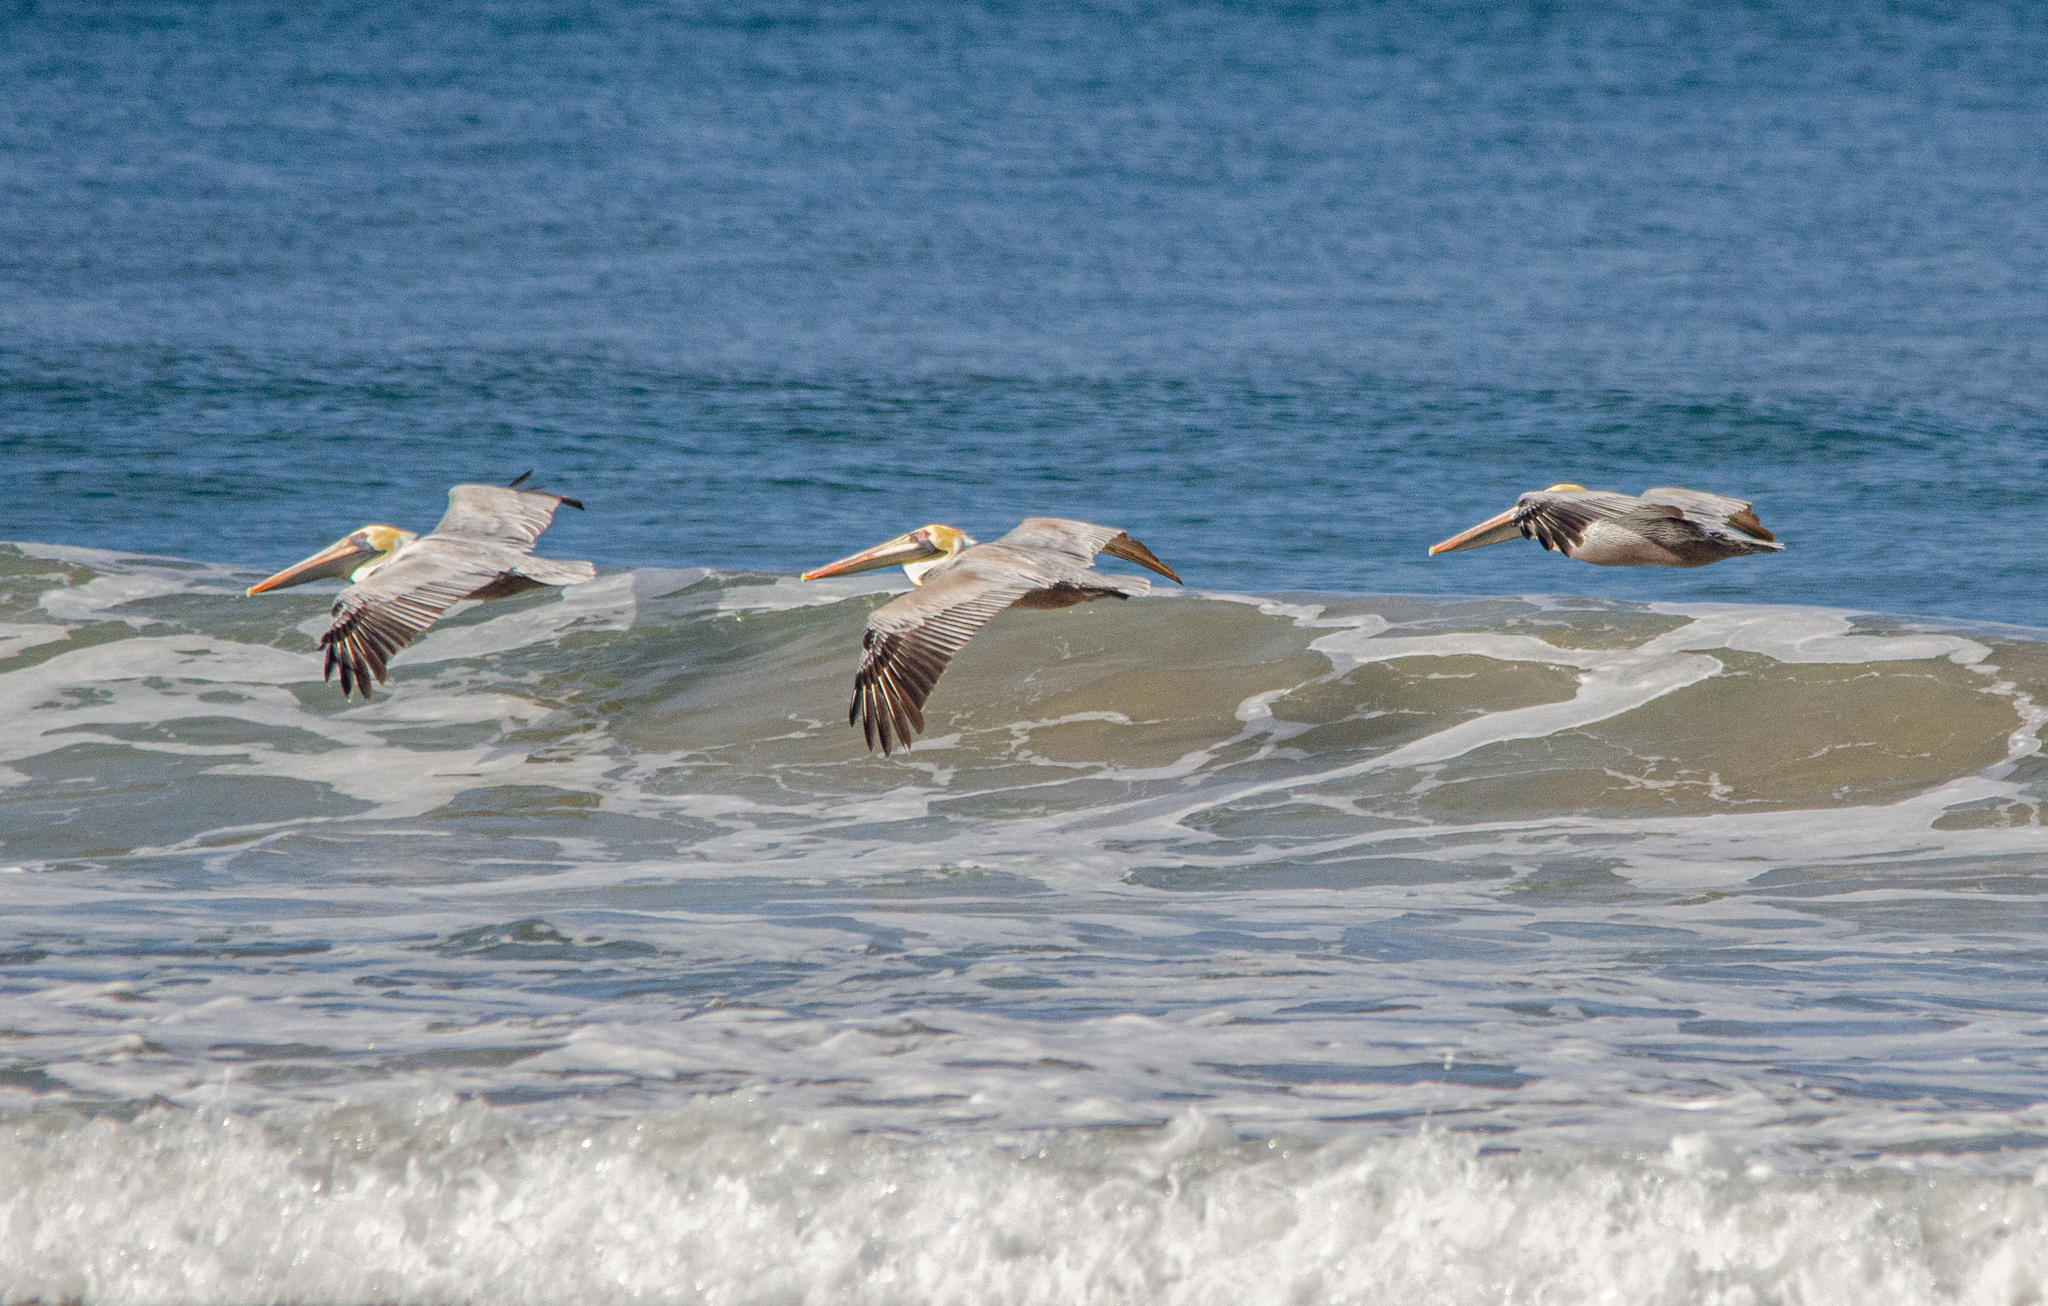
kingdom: Animalia
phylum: Chordata
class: Aves
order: Pelecaniformes
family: Pelecanidae
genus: Pelecanus
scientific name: Pelecanus occidentalis
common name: Brown pelican
